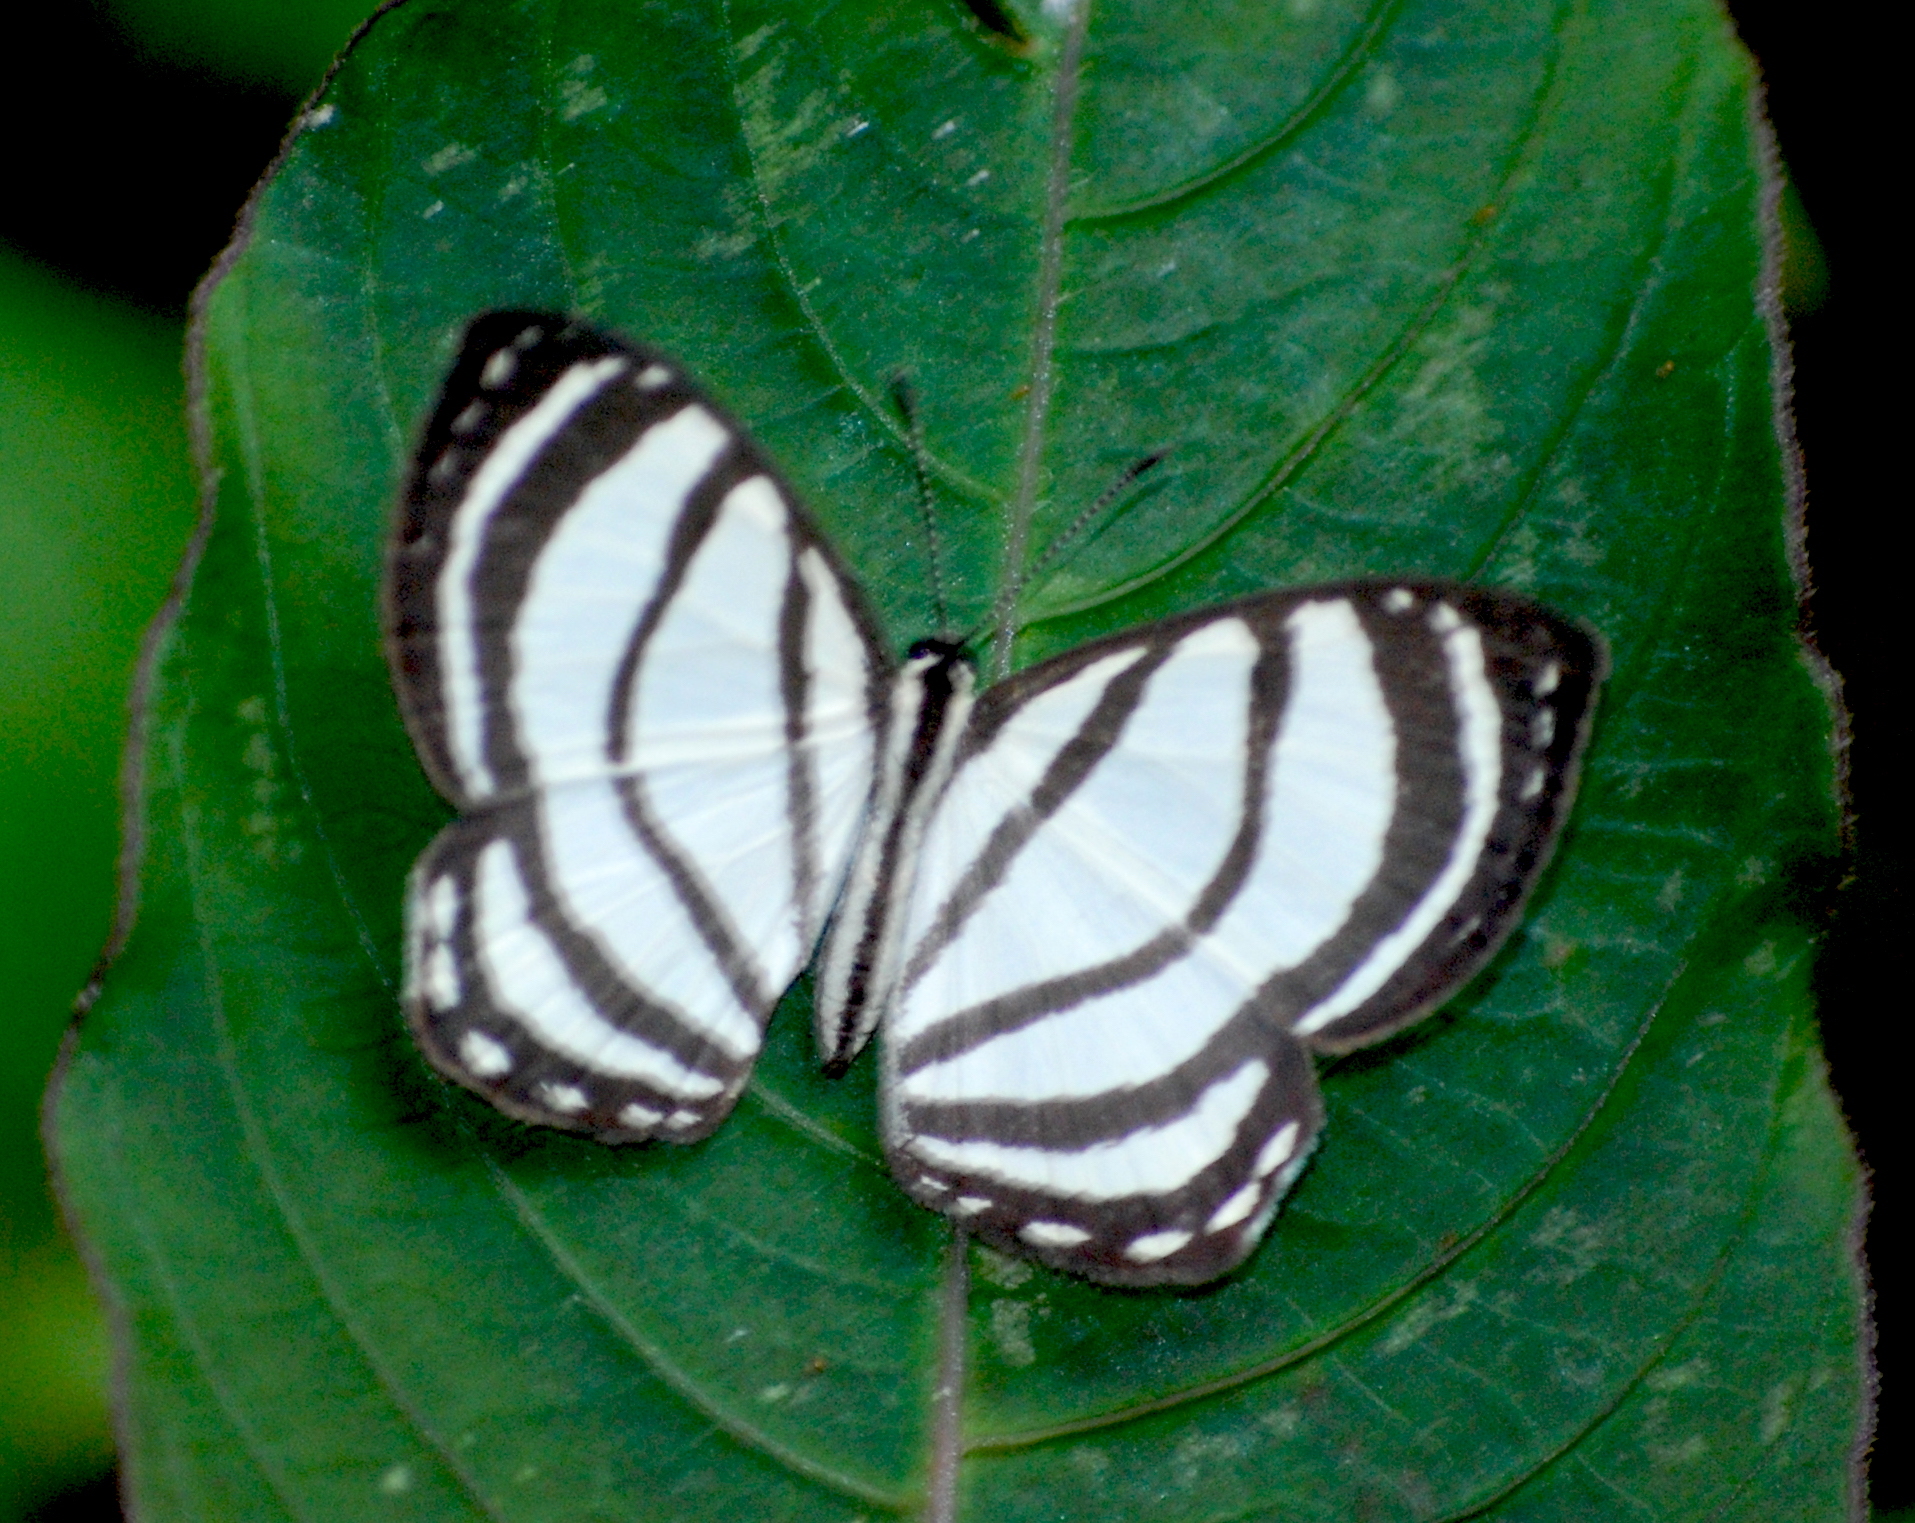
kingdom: Animalia
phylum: Arthropoda
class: Insecta
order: Lepidoptera
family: Riodinidae
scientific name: Riodinidae
